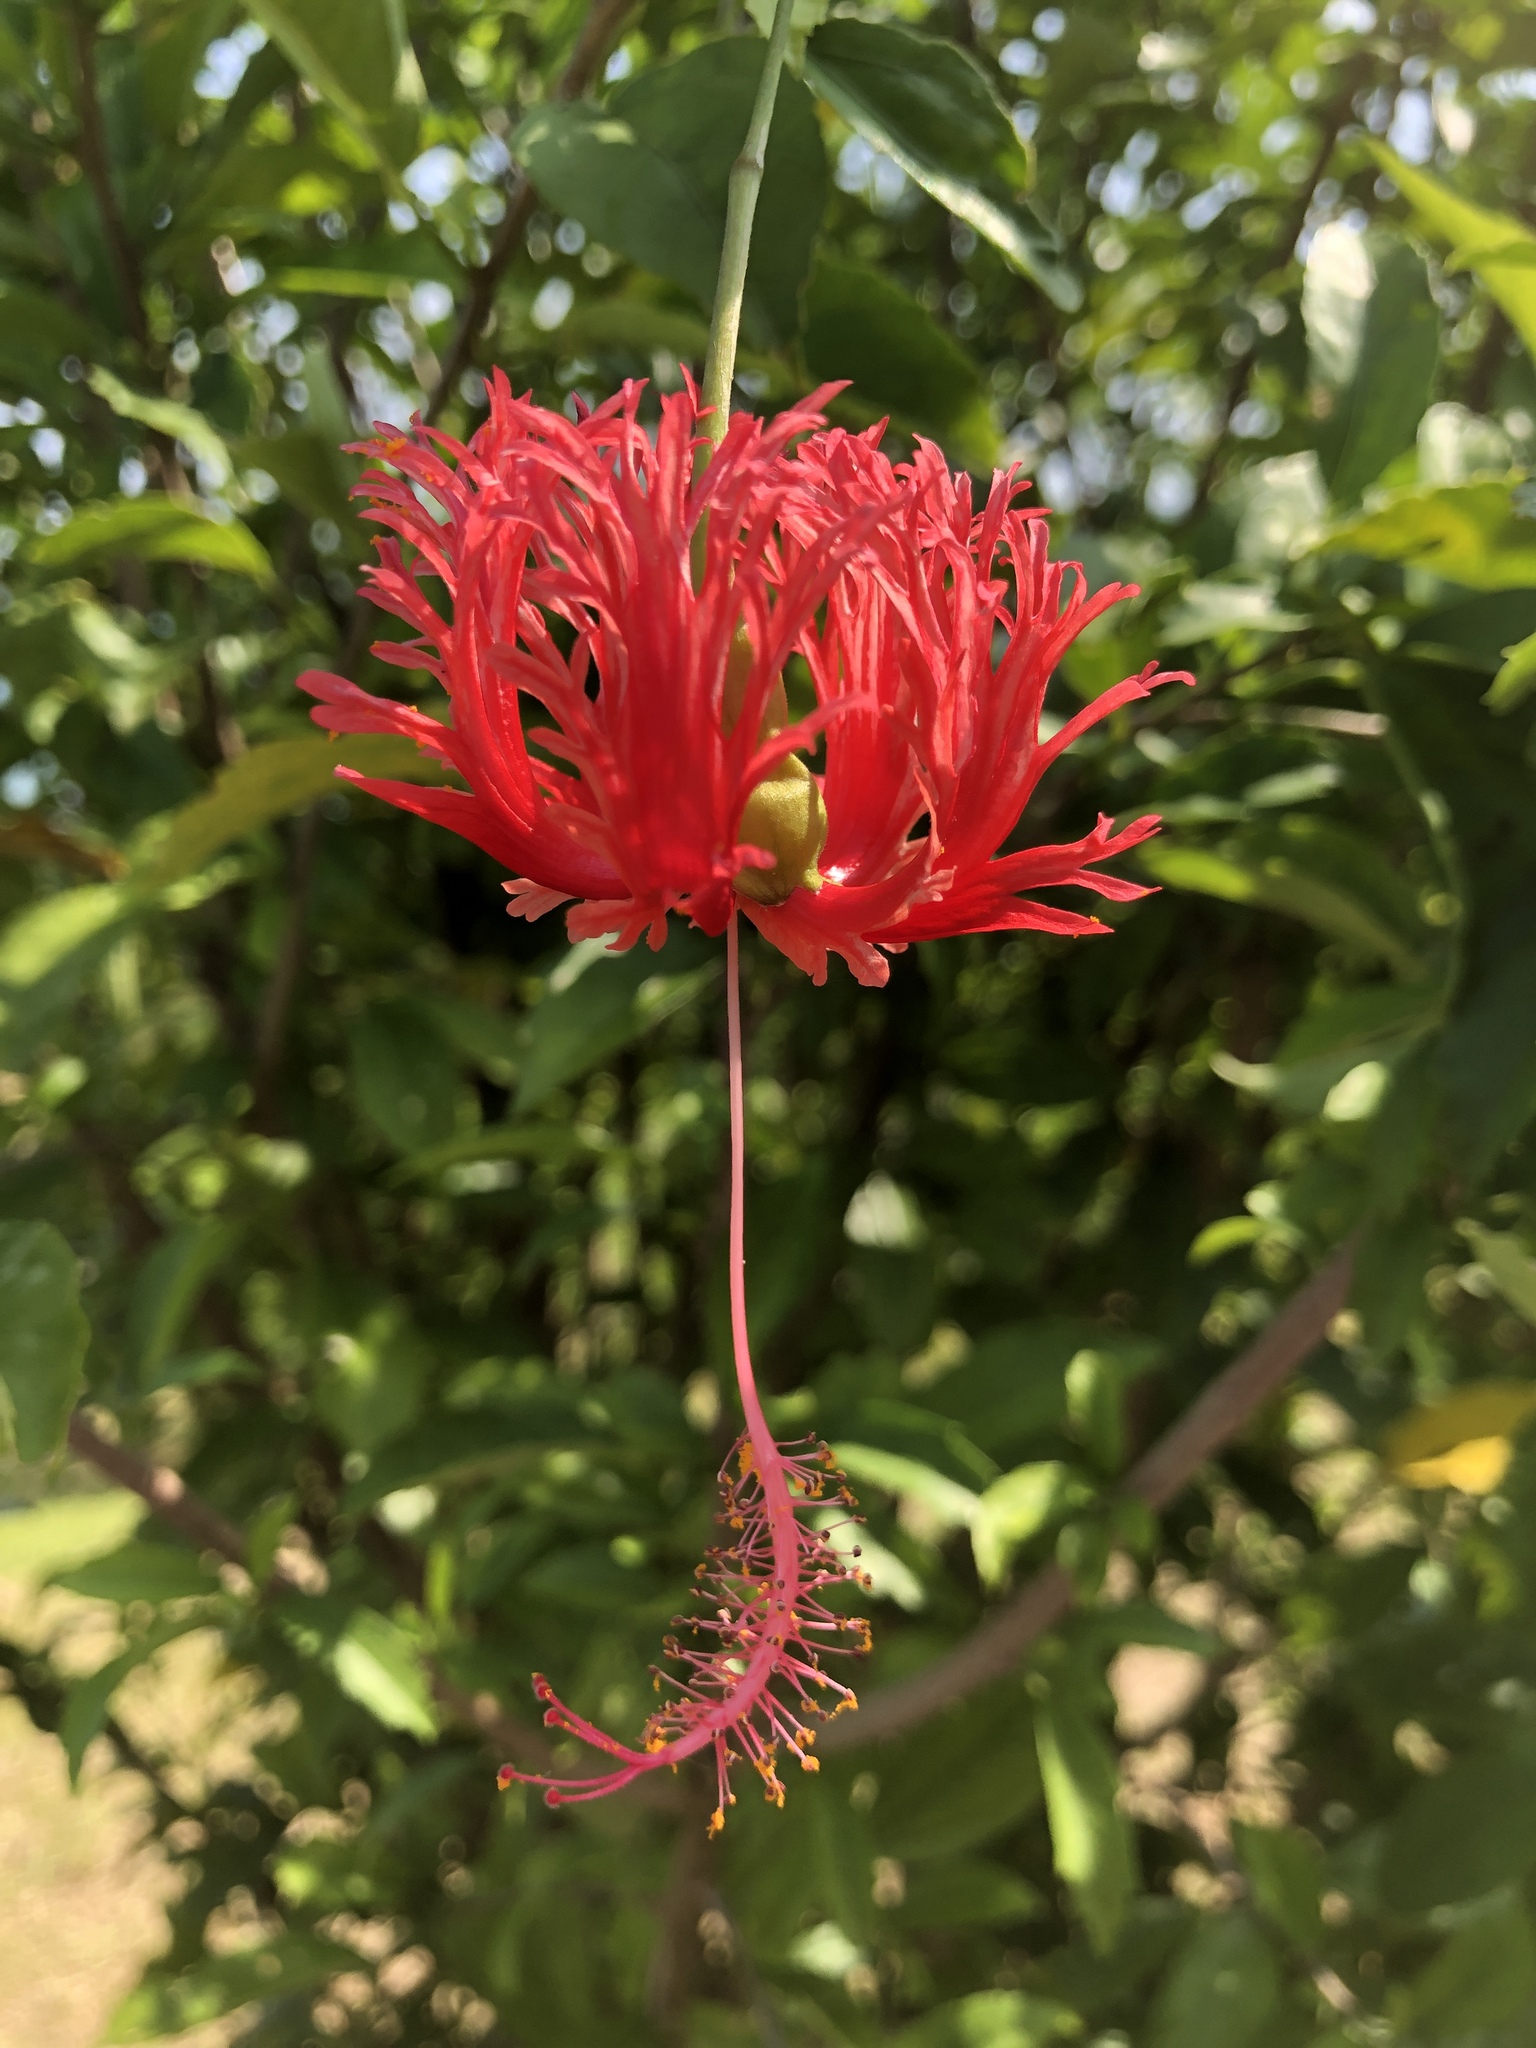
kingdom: Plantae
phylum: Tracheophyta
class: Magnoliopsida
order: Malvales
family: Malvaceae
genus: Hibiscus
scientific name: Hibiscus schizopetalus
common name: Fringed rosemallow
